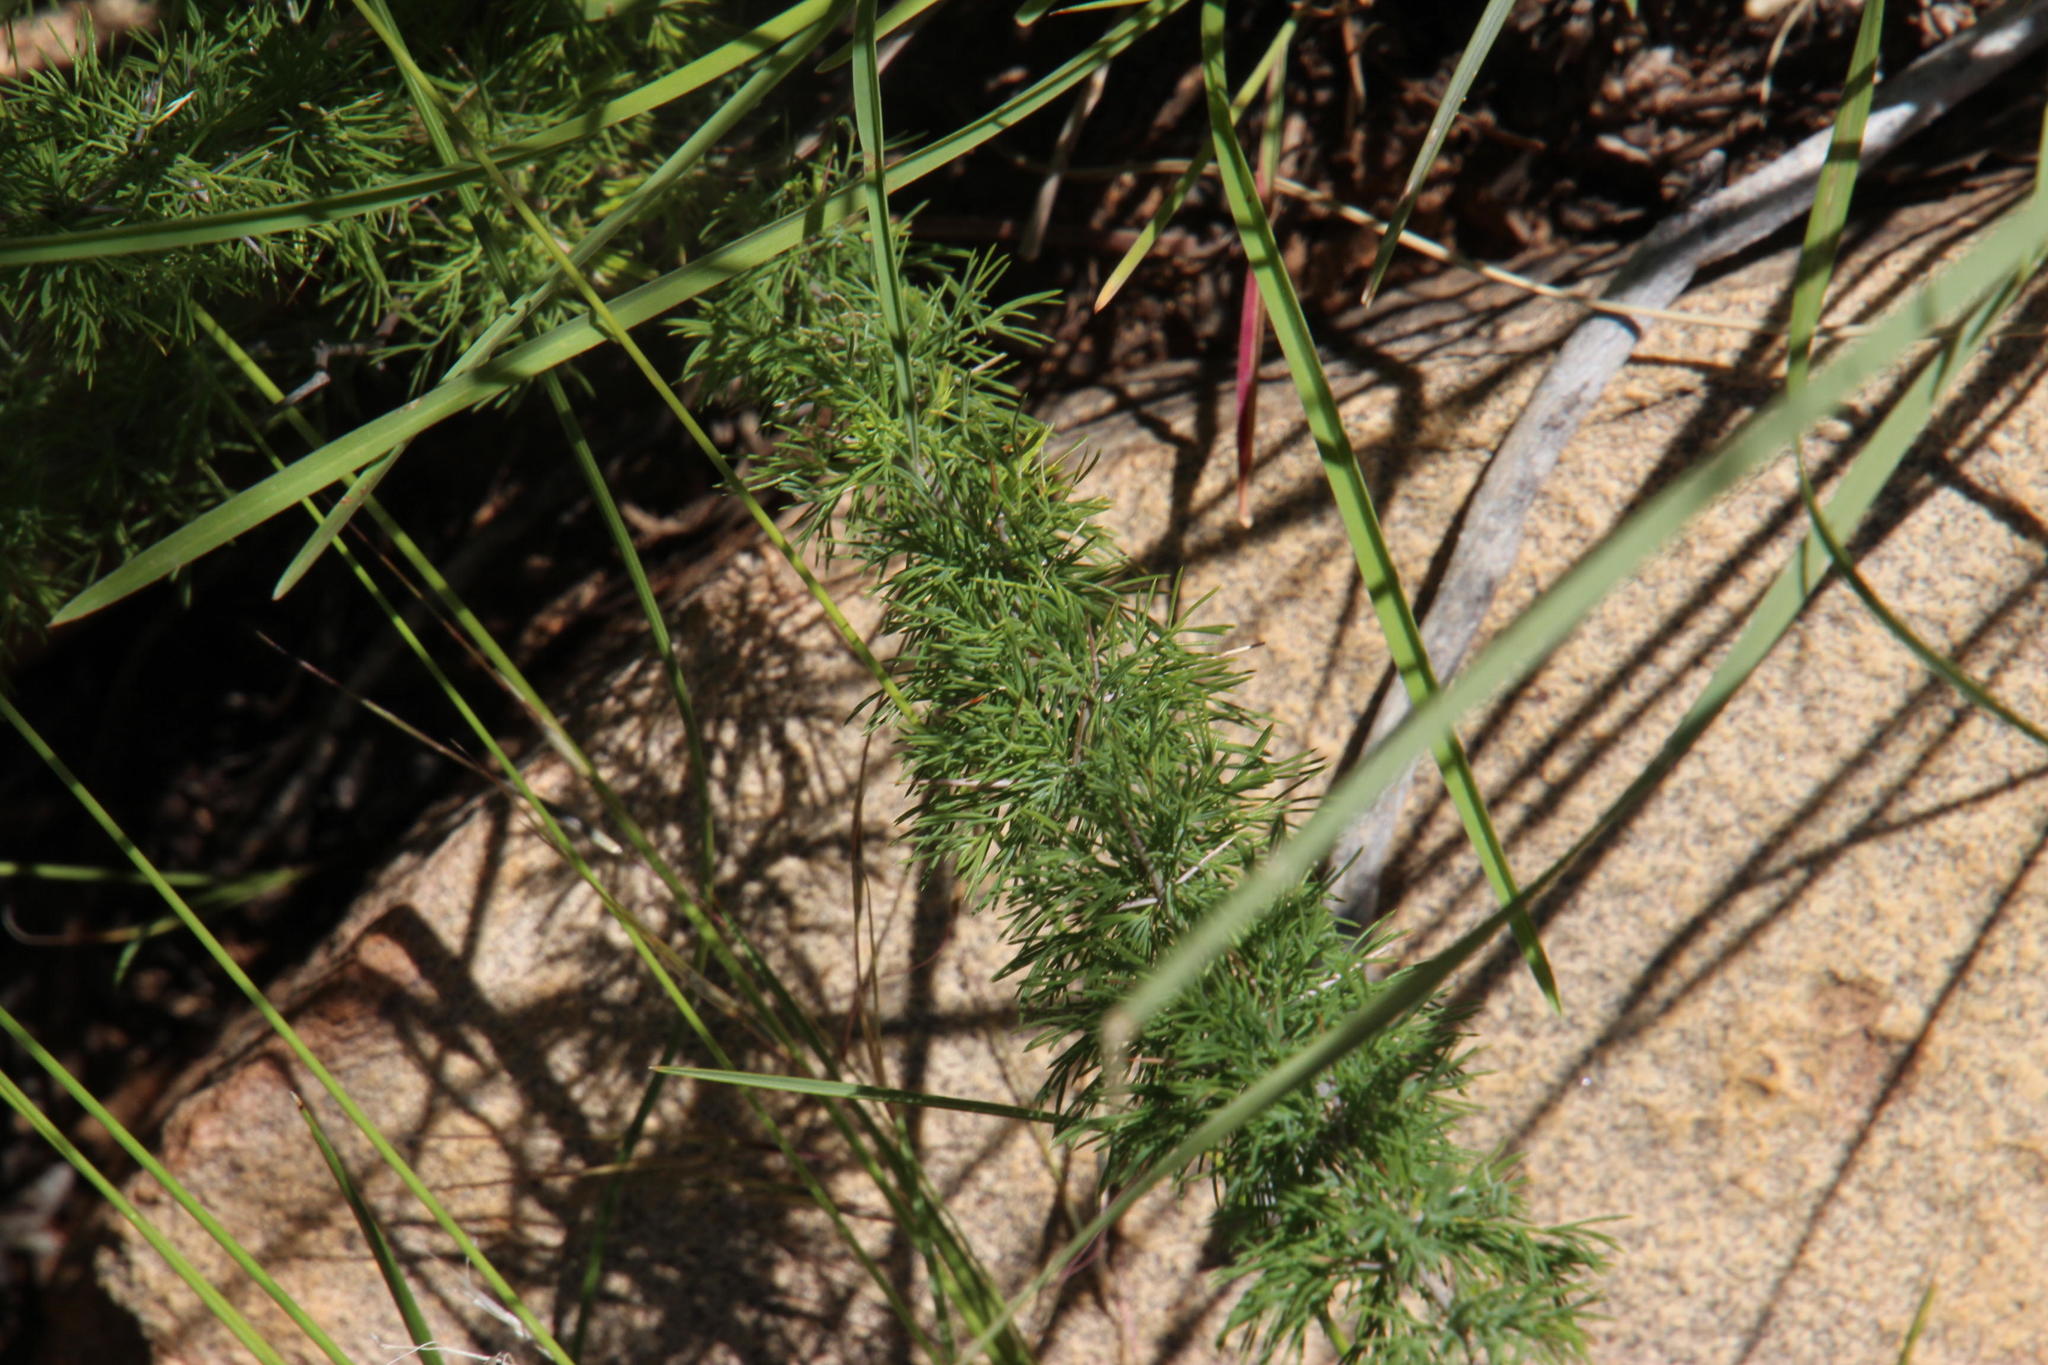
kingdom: Plantae
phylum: Tracheophyta
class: Liliopsida
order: Asparagales
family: Asparagaceae
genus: Asparagus
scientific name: Asparagus suaveolens
